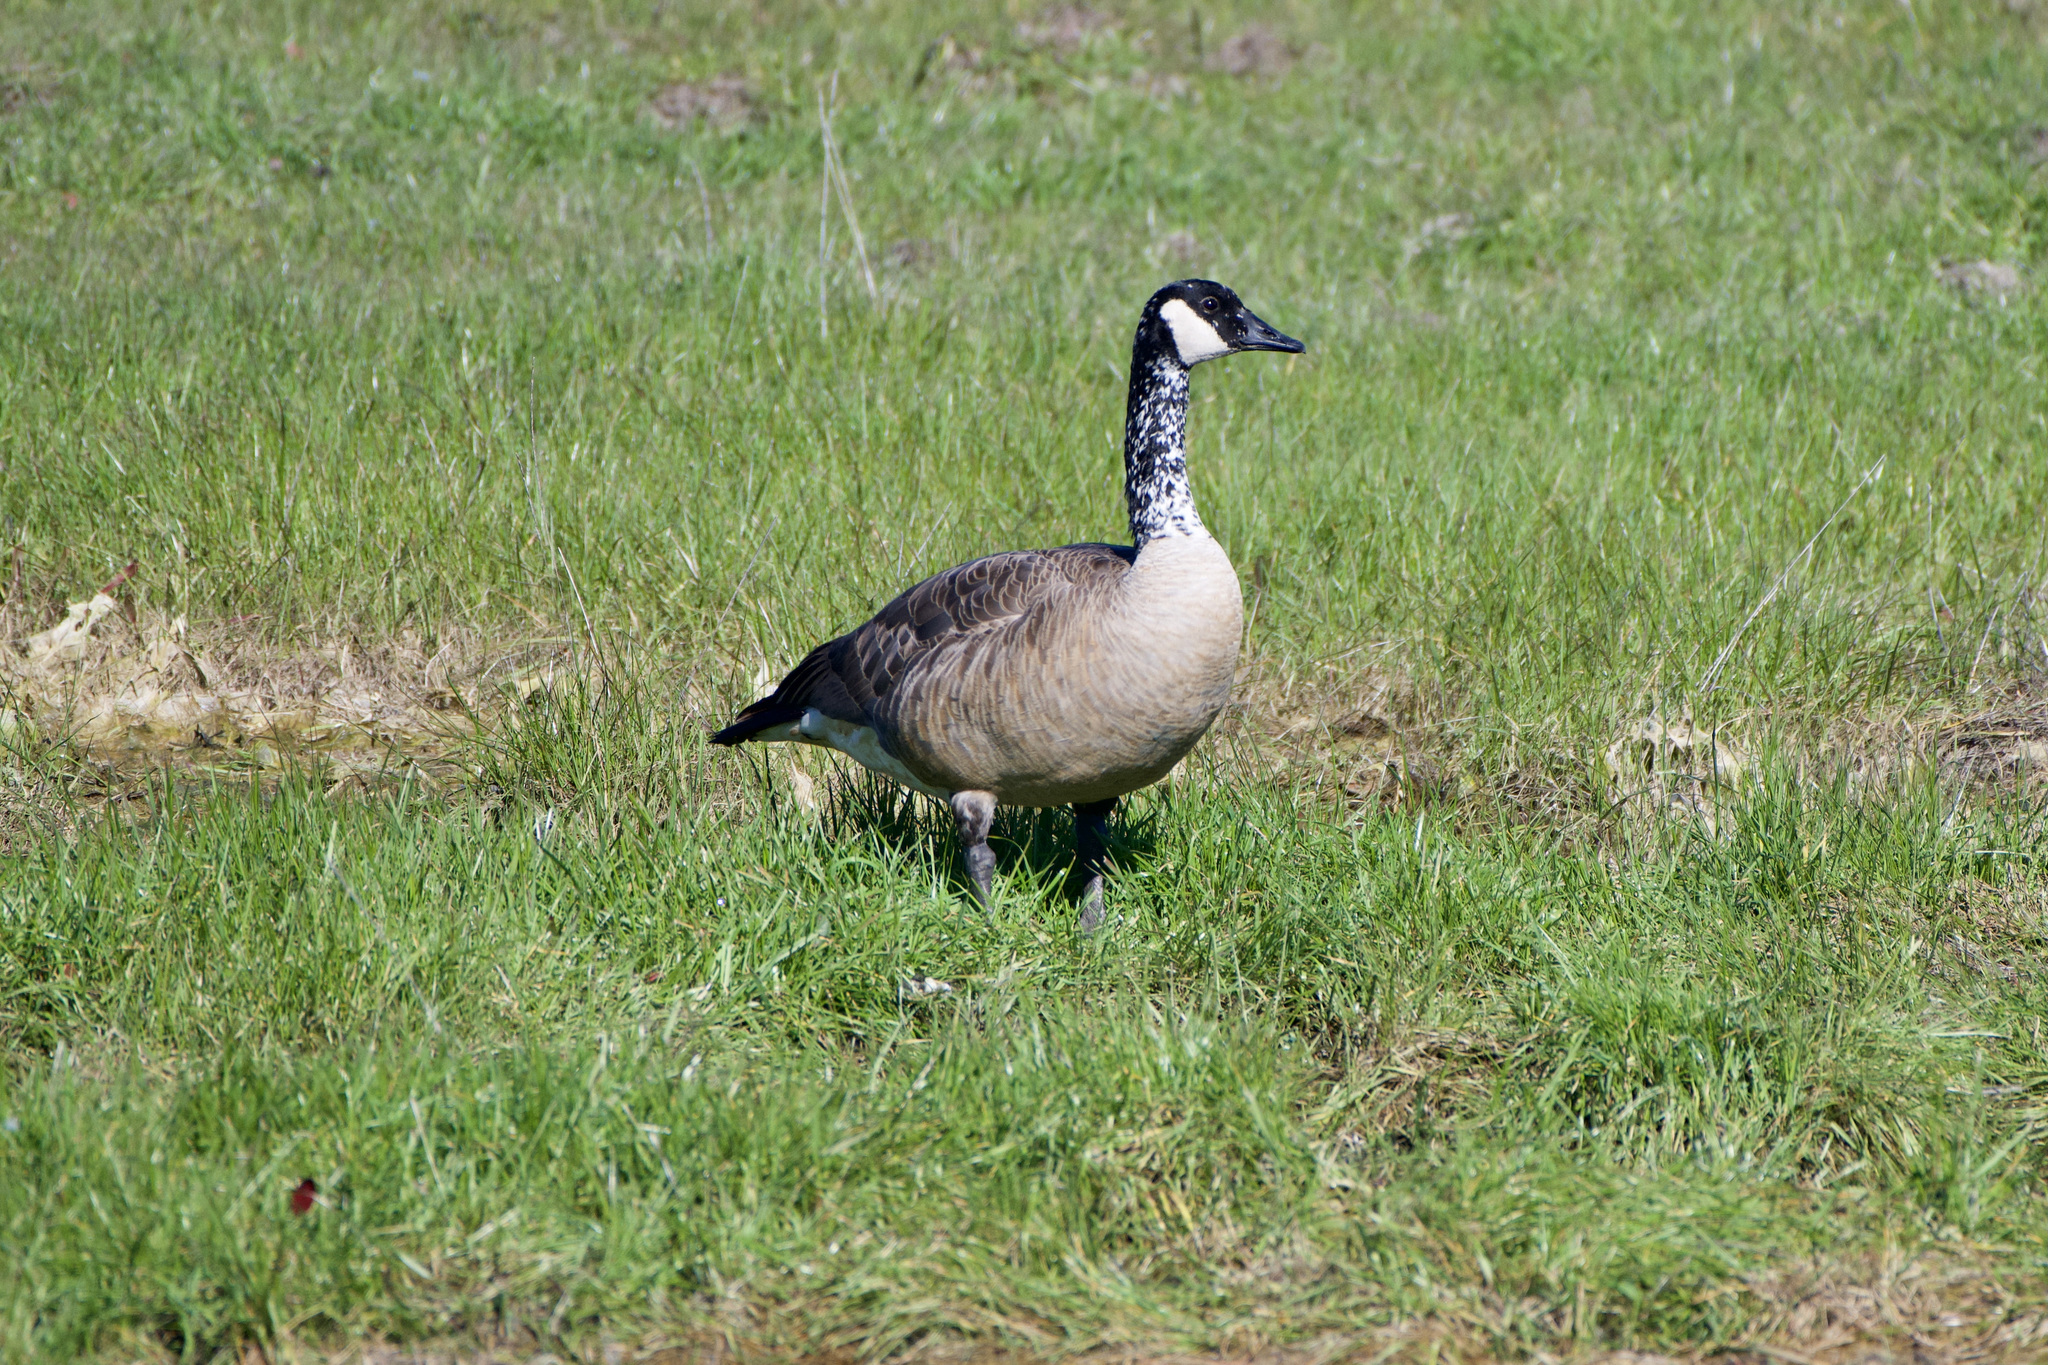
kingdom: Animalia
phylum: Chordata
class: Aves
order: Anseriformes
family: Anatidae
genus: Branta
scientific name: Branta canadensis
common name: Canada goose
